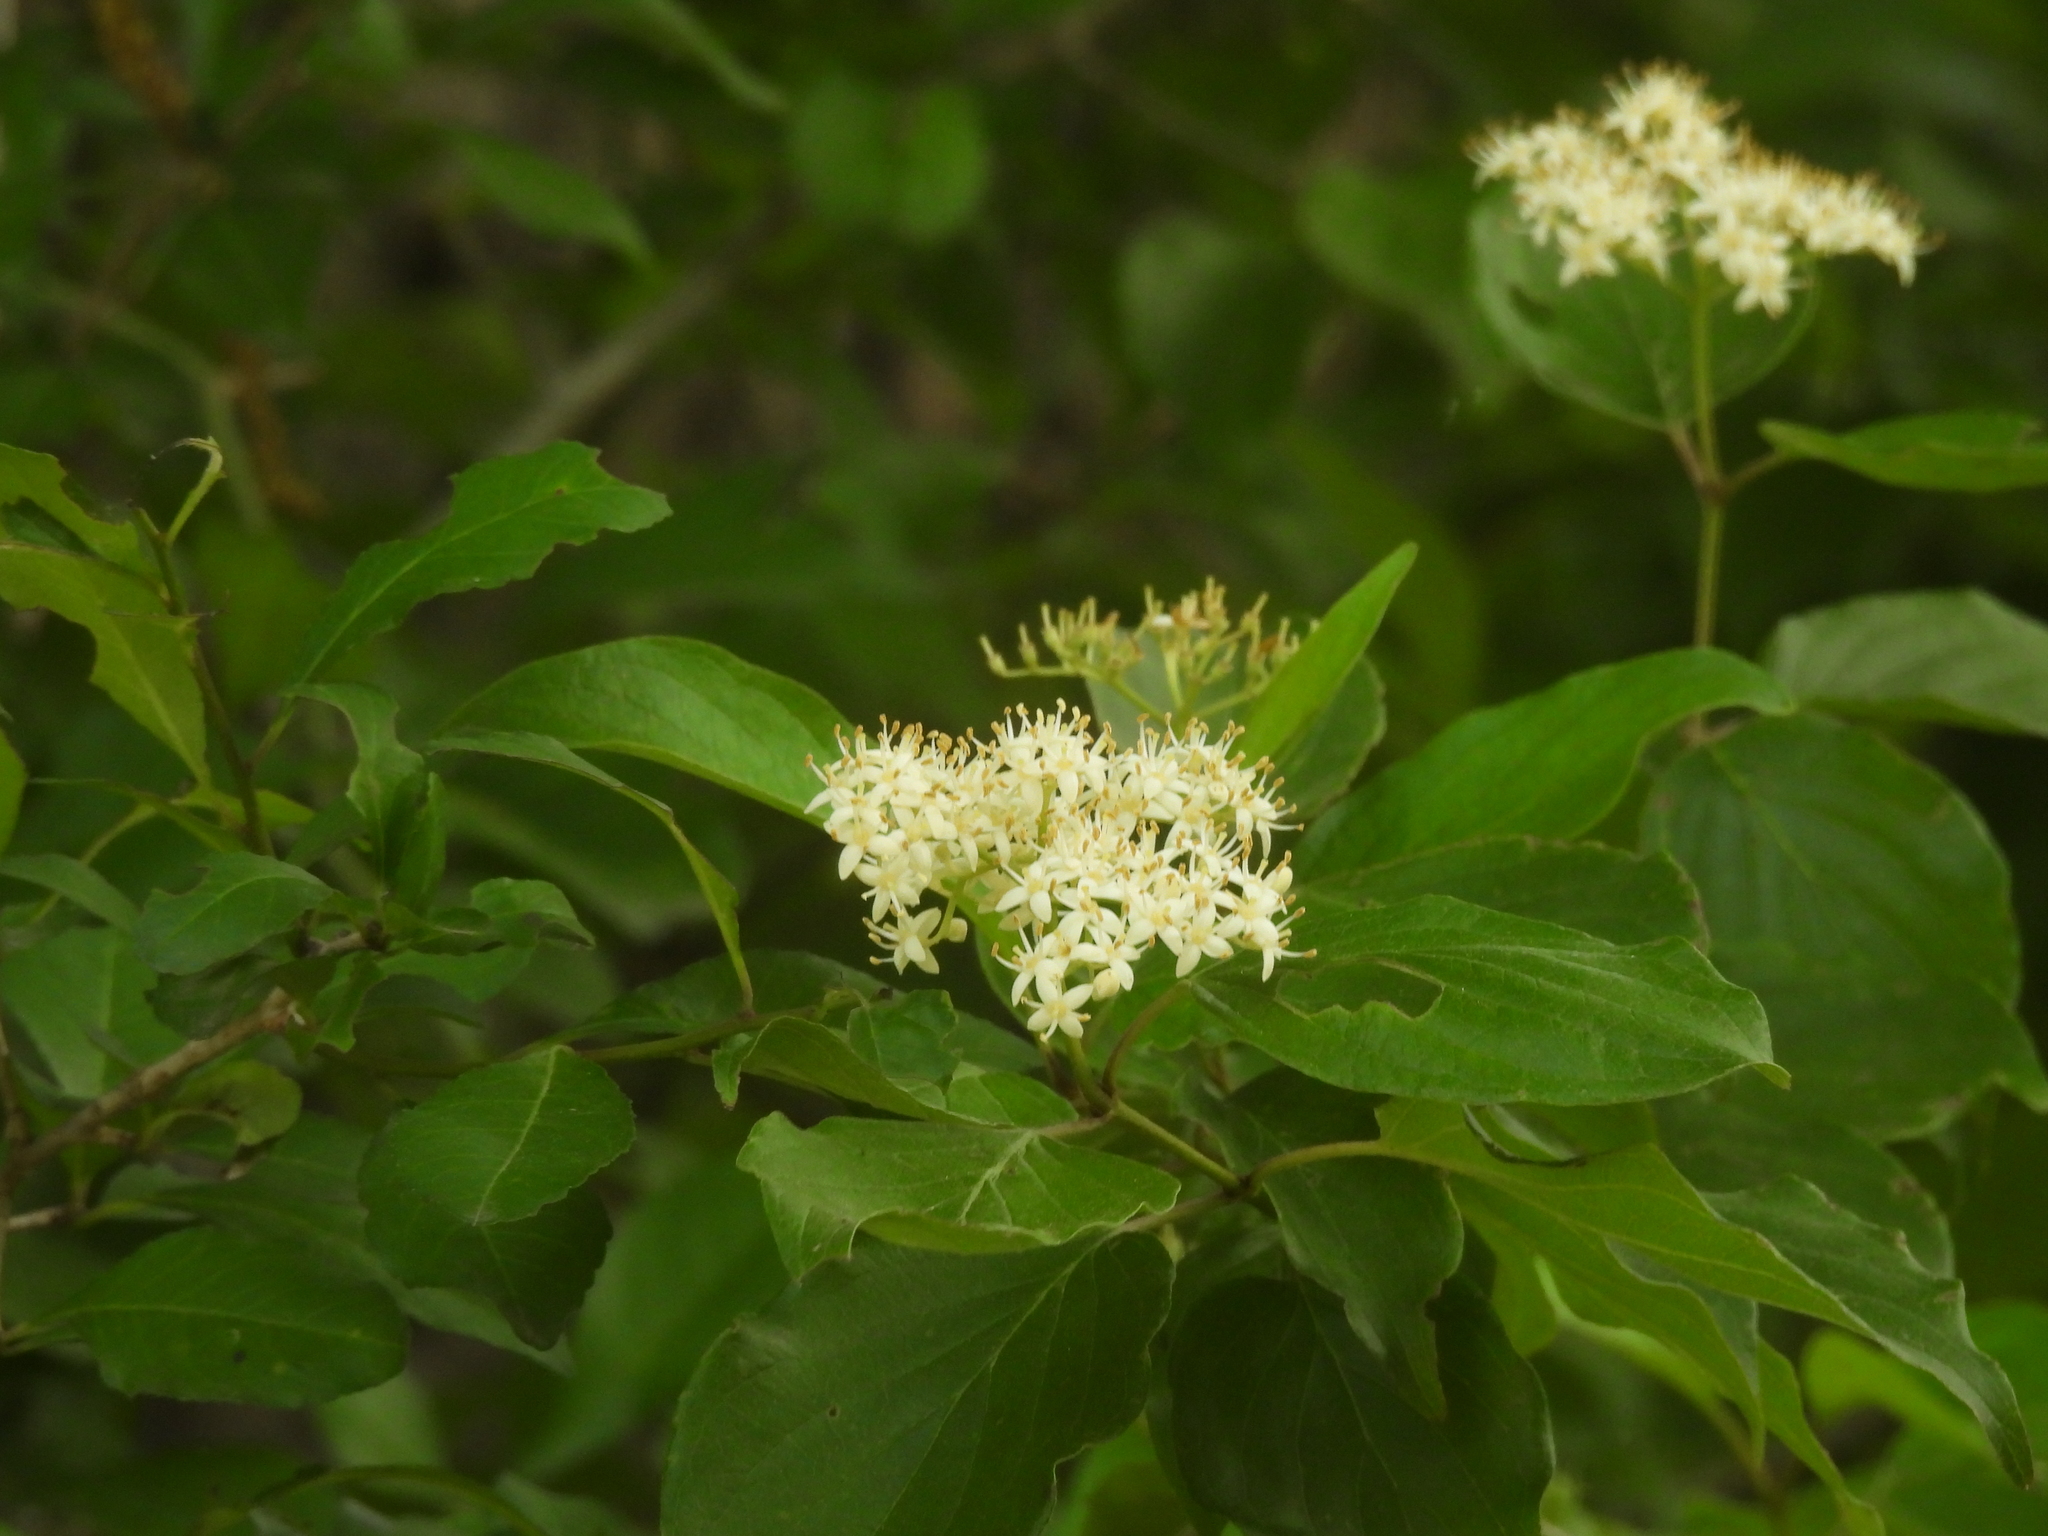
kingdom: Plantae
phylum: Tracheophyta
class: Magnoliopsida
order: Cornales
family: Cornaceae
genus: Cornus
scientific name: Cornus drummondii
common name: Rough-leaf dogwood
